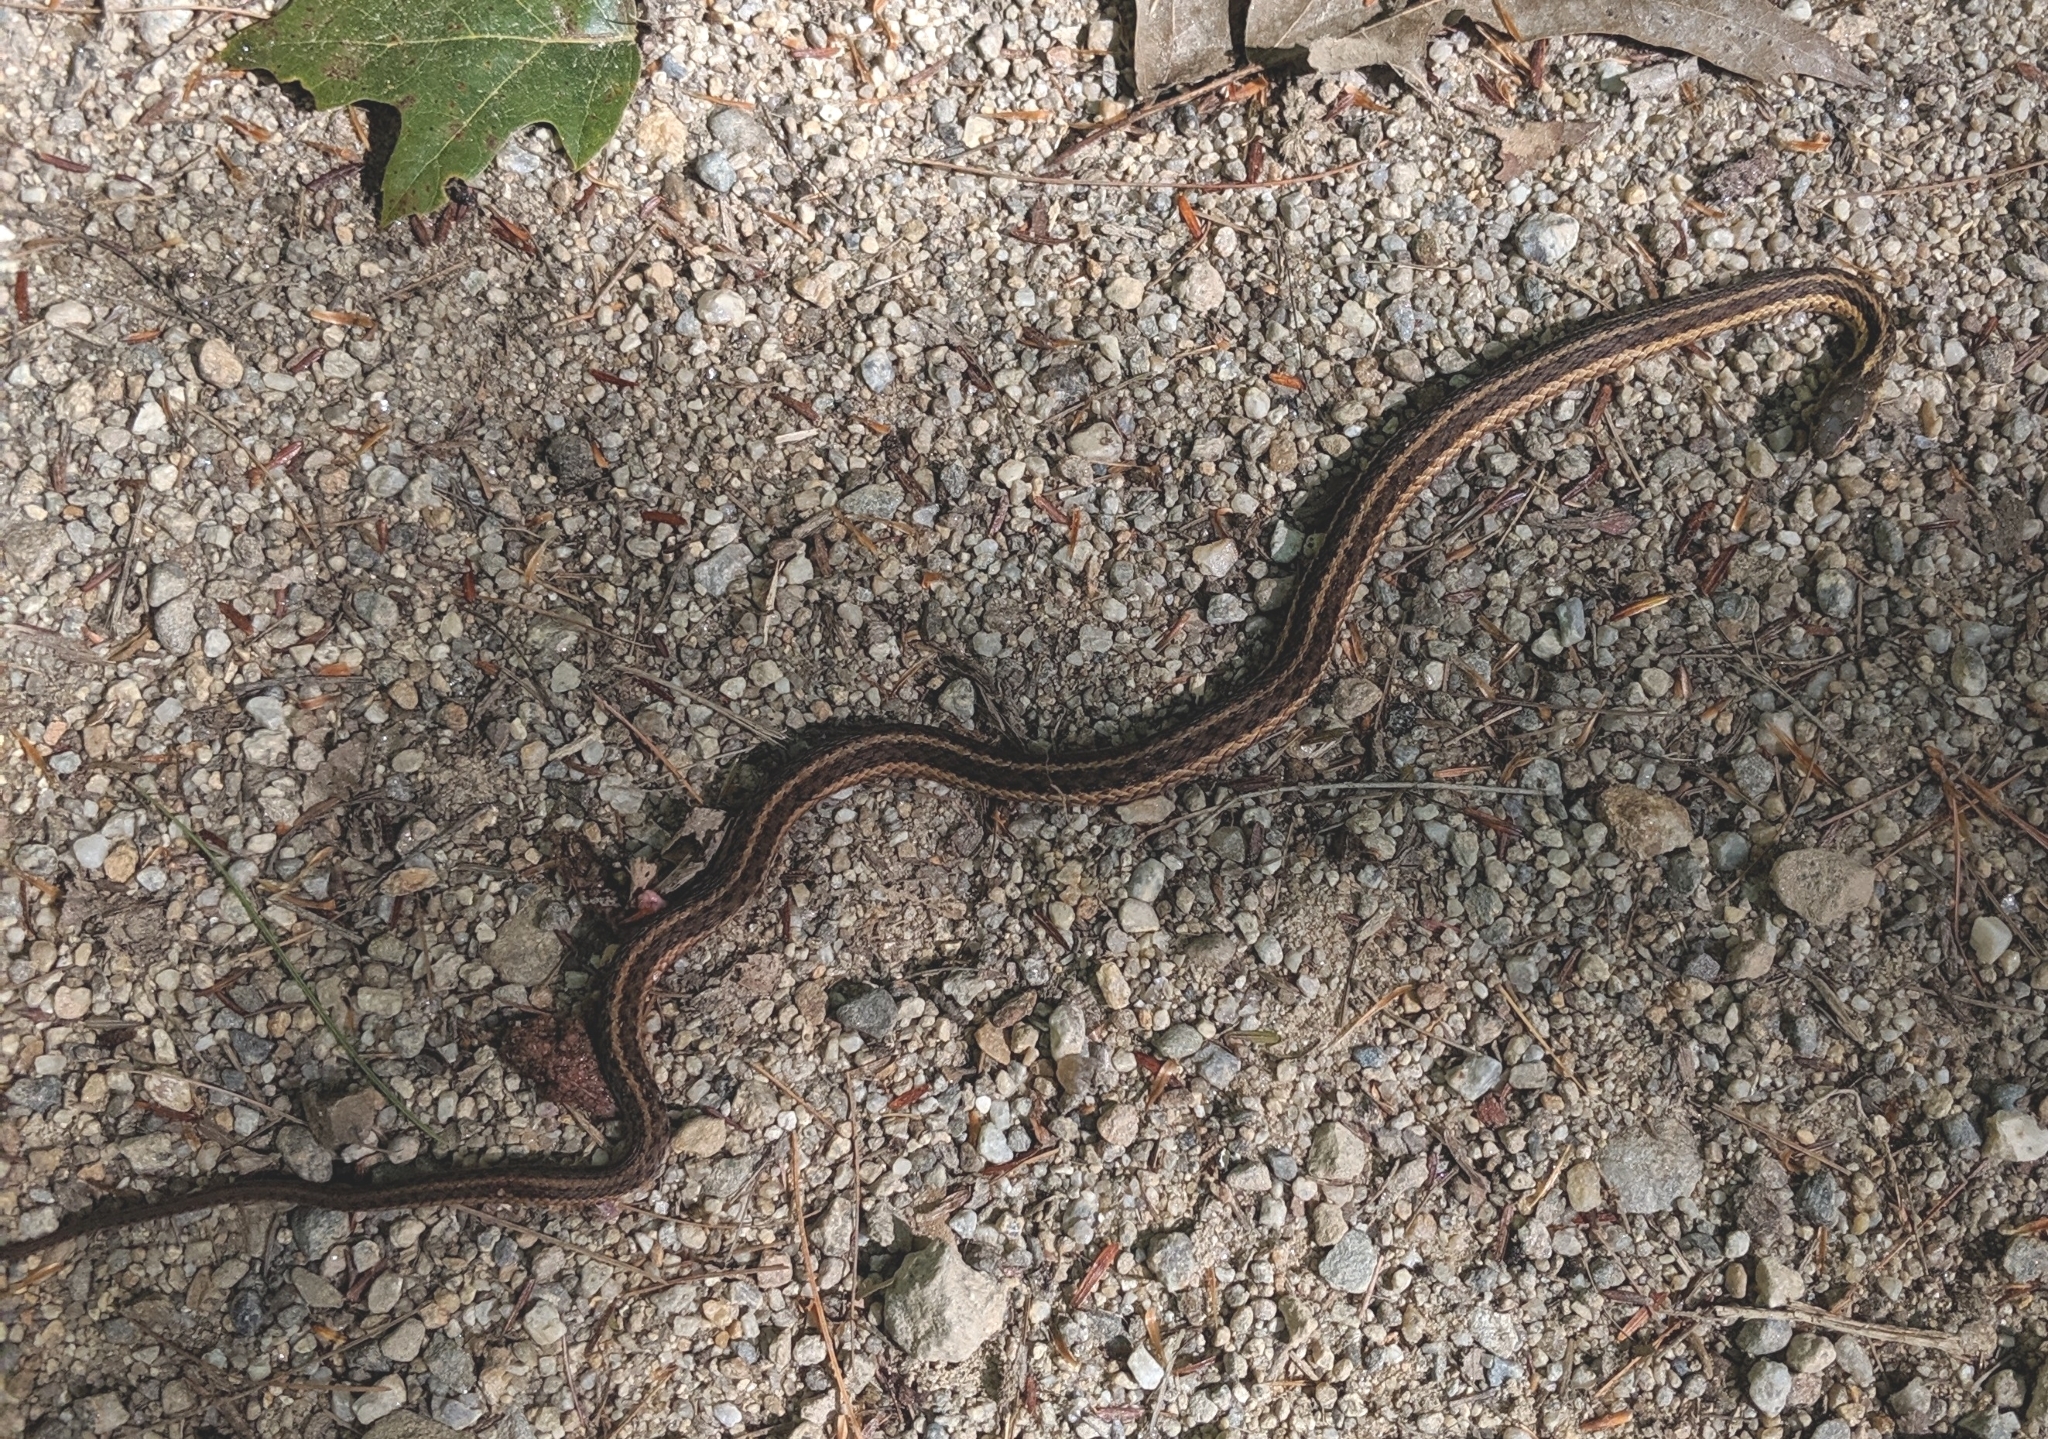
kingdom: Animalia
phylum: Chordata
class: Squamata
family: Colubridae
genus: Thamnophis
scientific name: Thamnophis sirtalis
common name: Common garter snake
